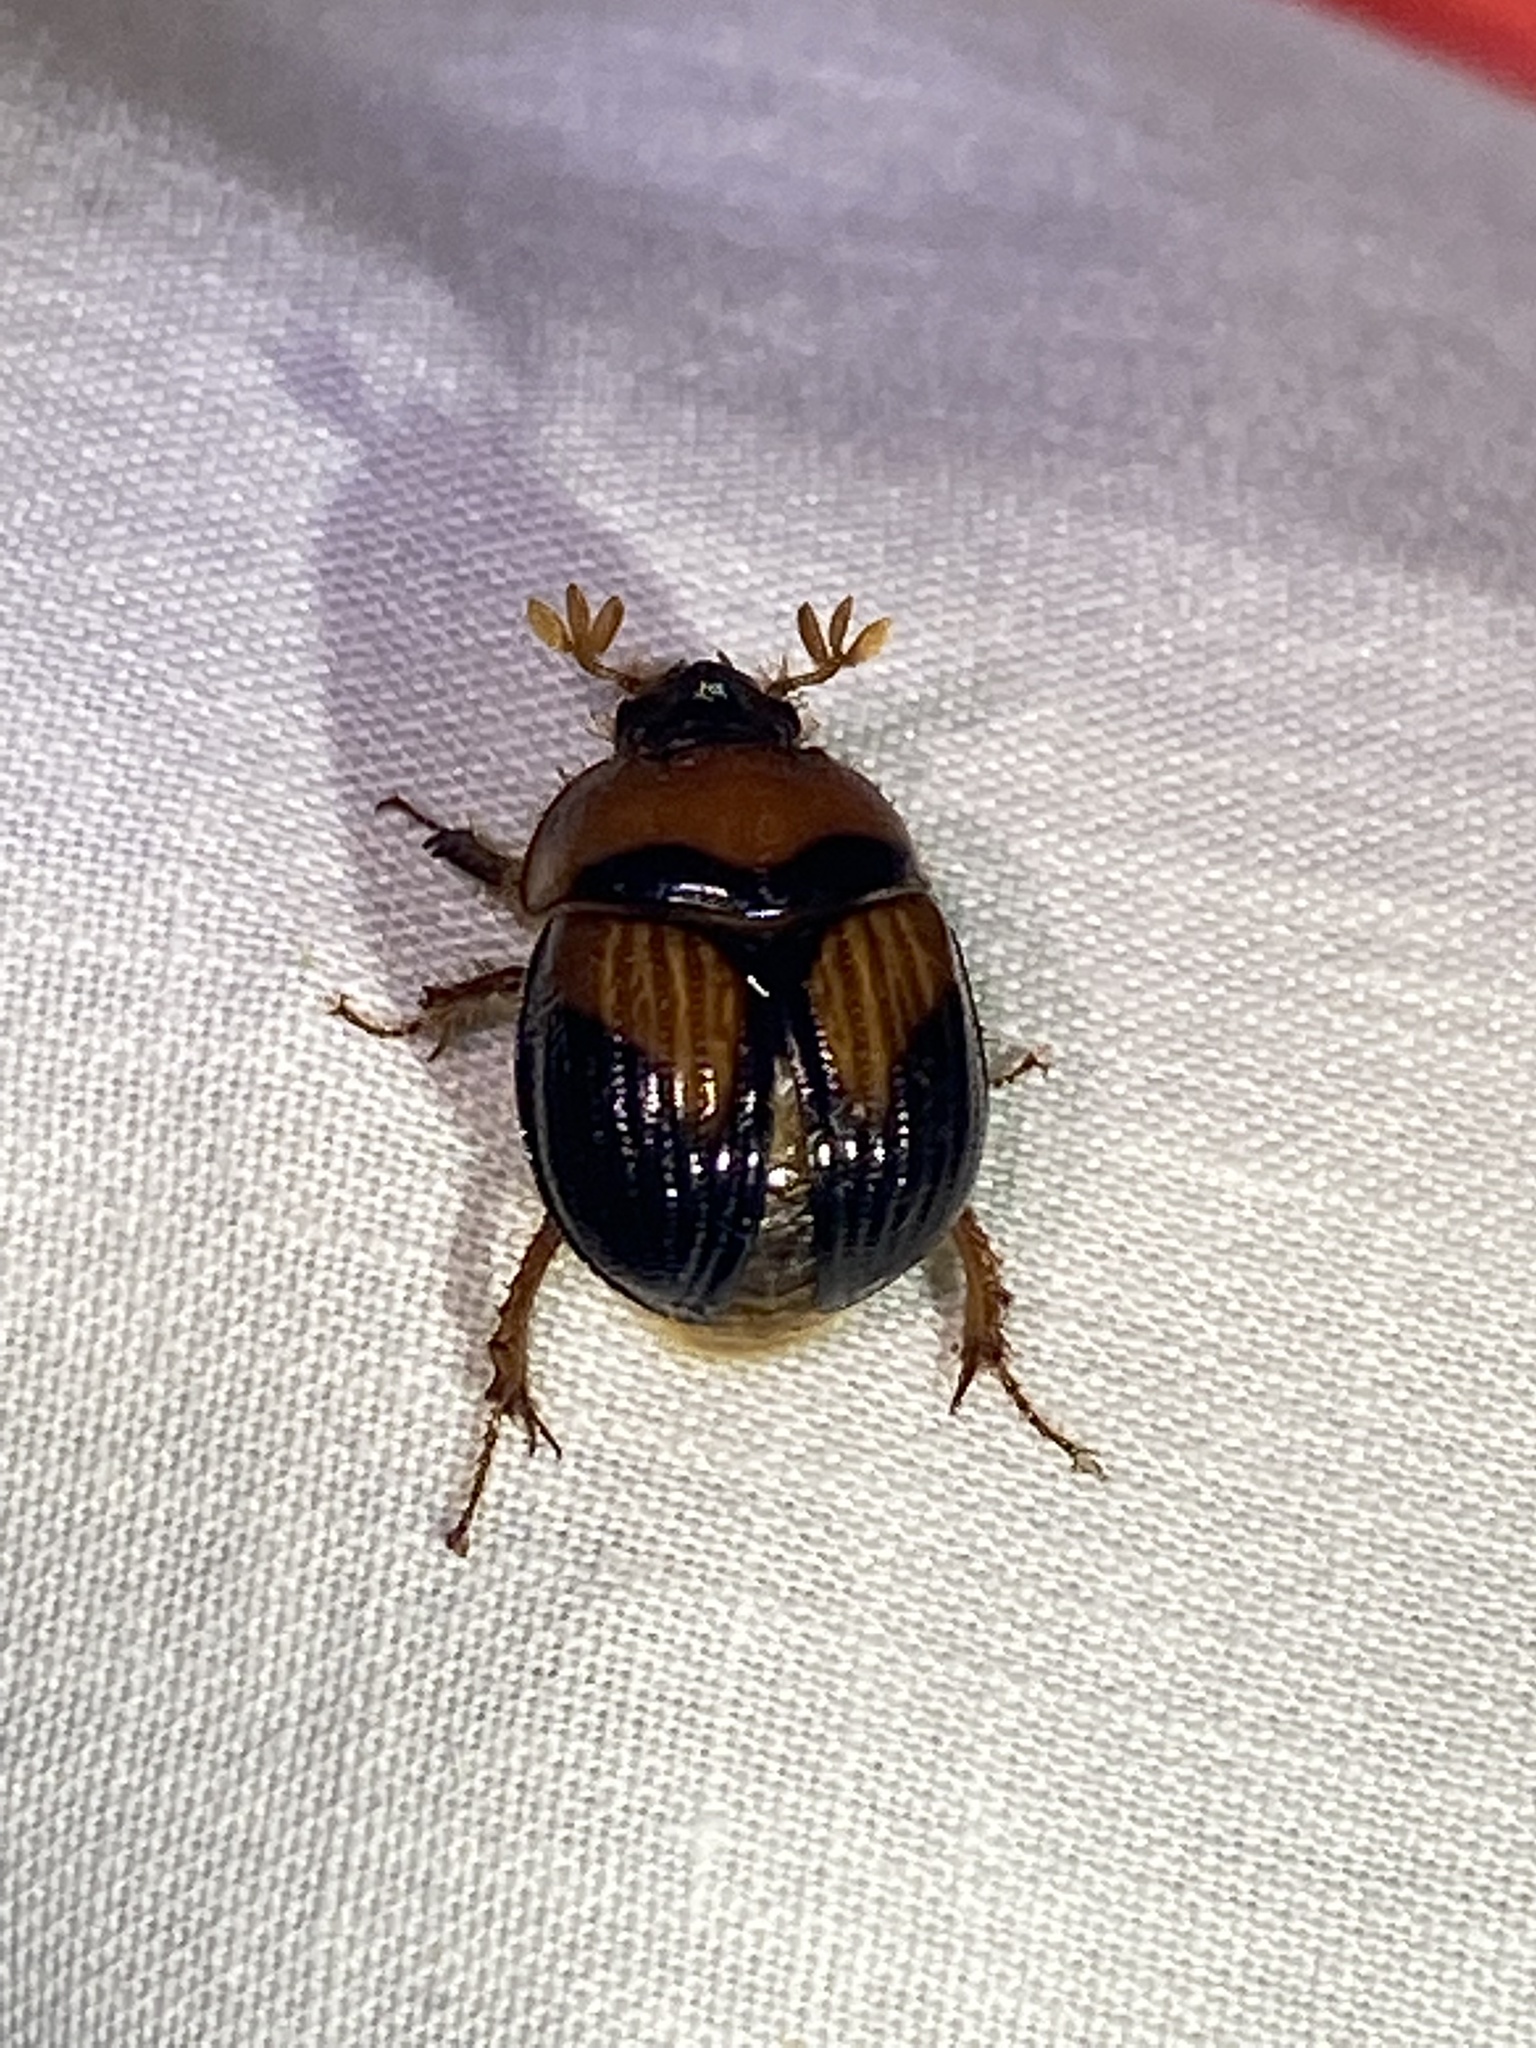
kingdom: Animalia
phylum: Arthropoda
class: Insecta
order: Coleoptera
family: Geotrupidae
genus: Bolbocerosoma
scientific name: Bolbocerosoma farctum
